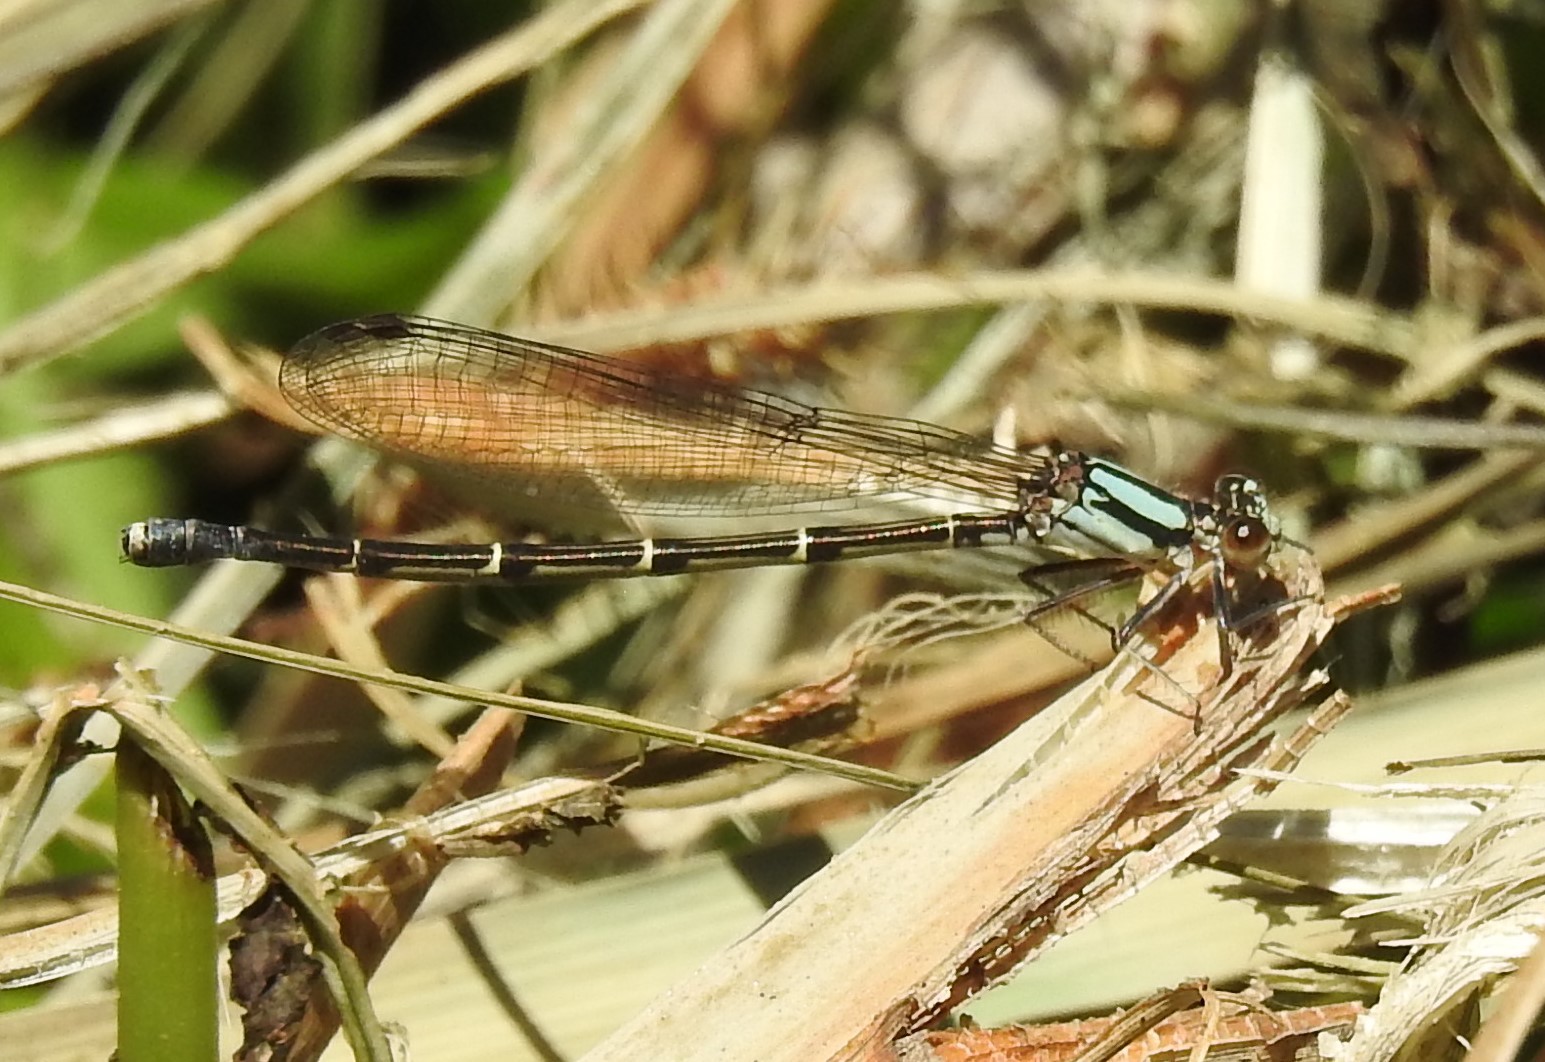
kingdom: Animalia
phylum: Arthropoda
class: Insecta
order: Odonata
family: Coenagrionidae
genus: Argia
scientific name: Argia tibialis
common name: Blue-tipped dancer
